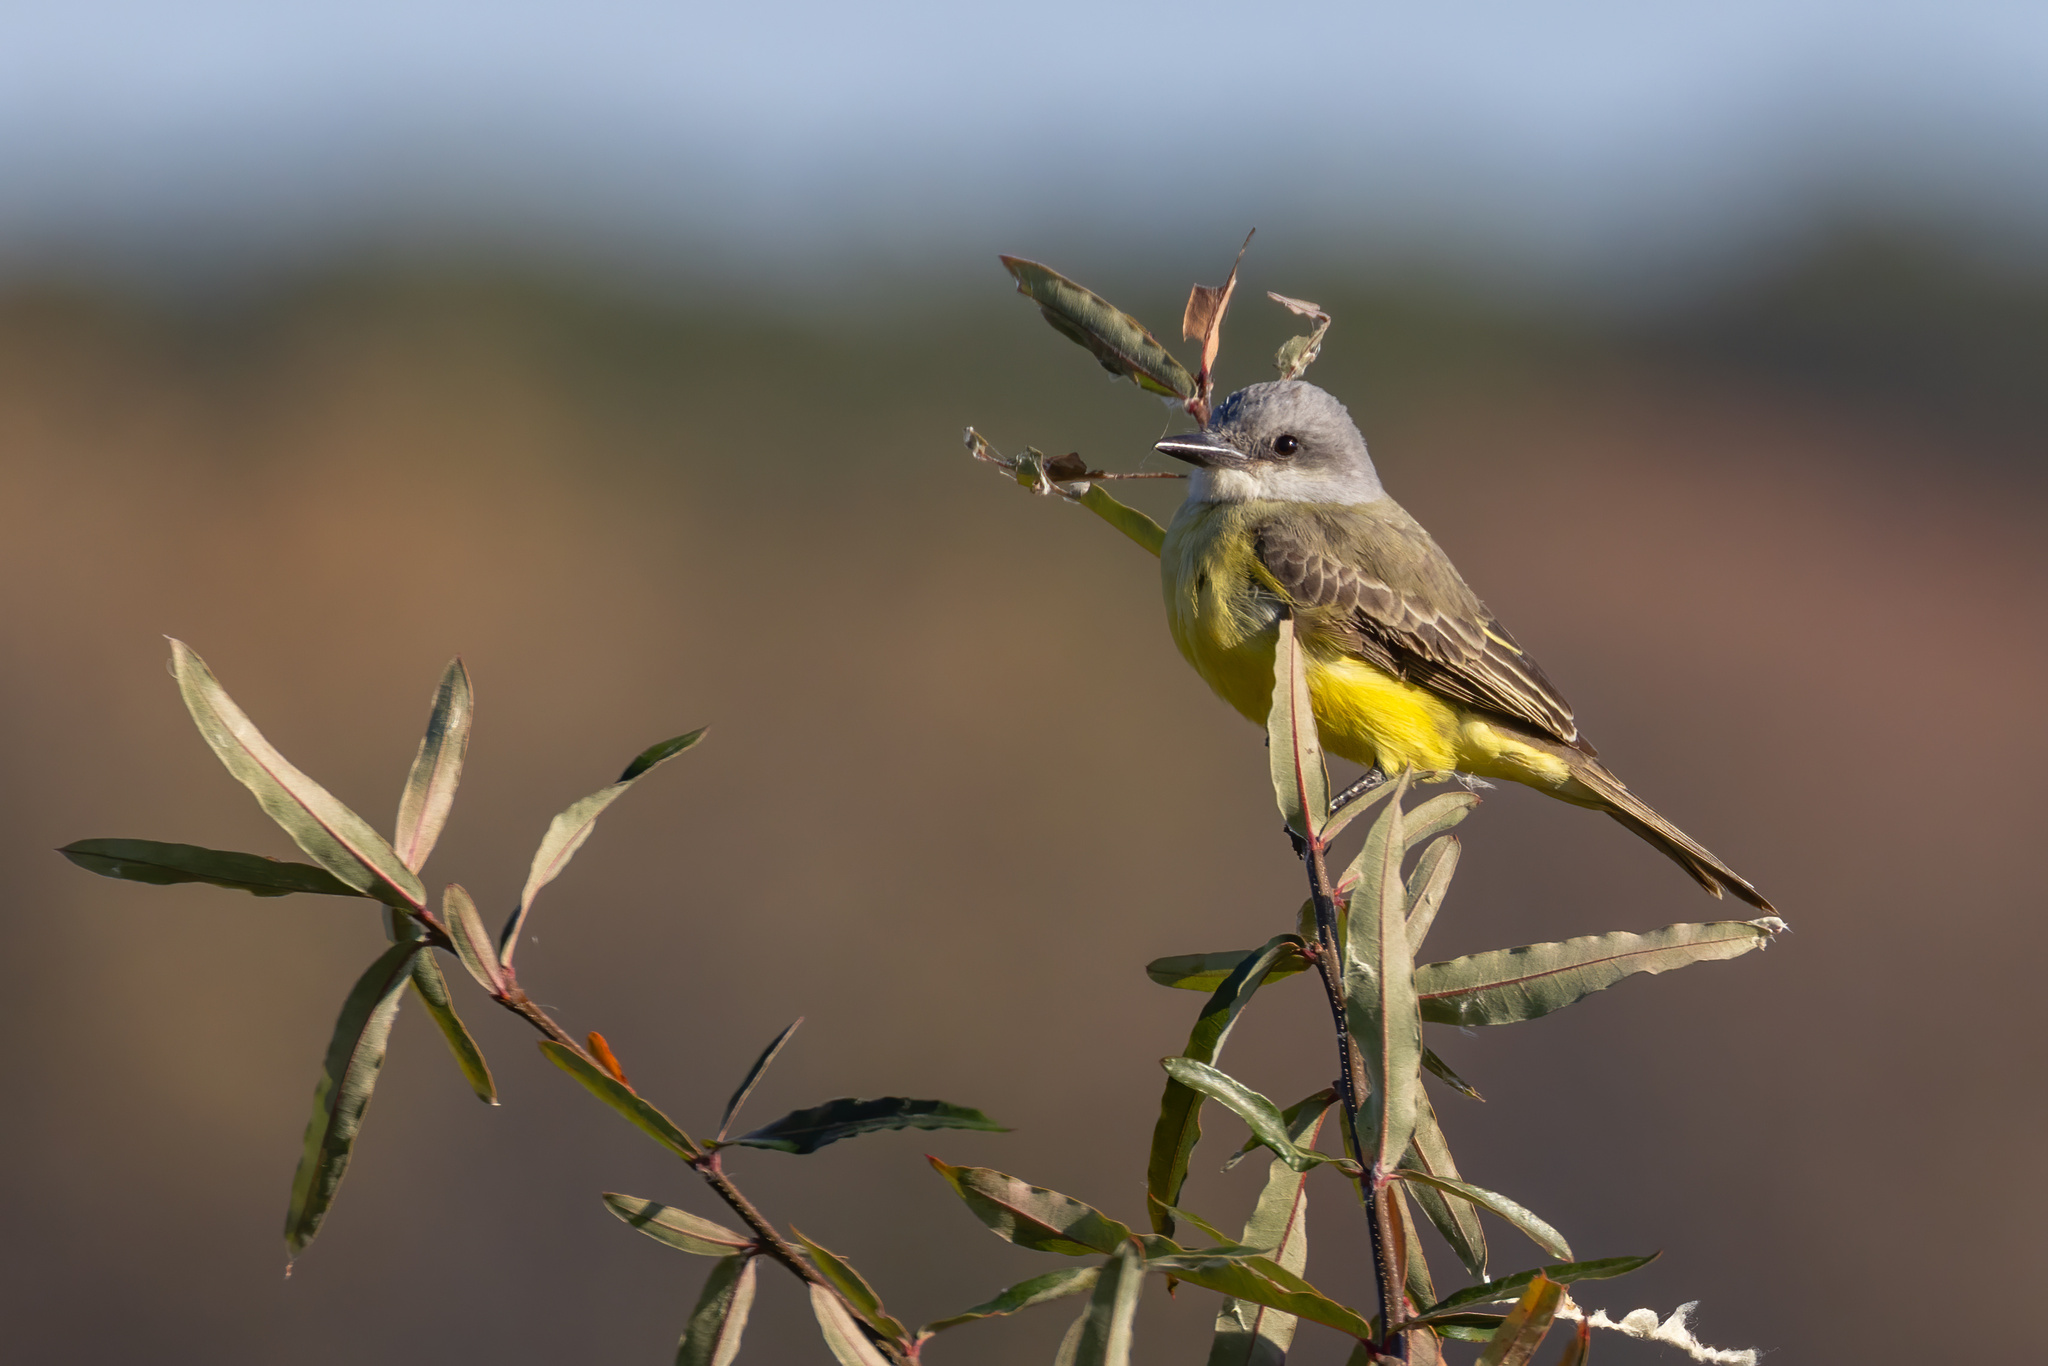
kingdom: Animalia
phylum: Chordata
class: Aves
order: Passeriformes
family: Tyrannidae
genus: Tyrannus
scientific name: Tyrannus melancholicus
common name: Tropical kingbird
